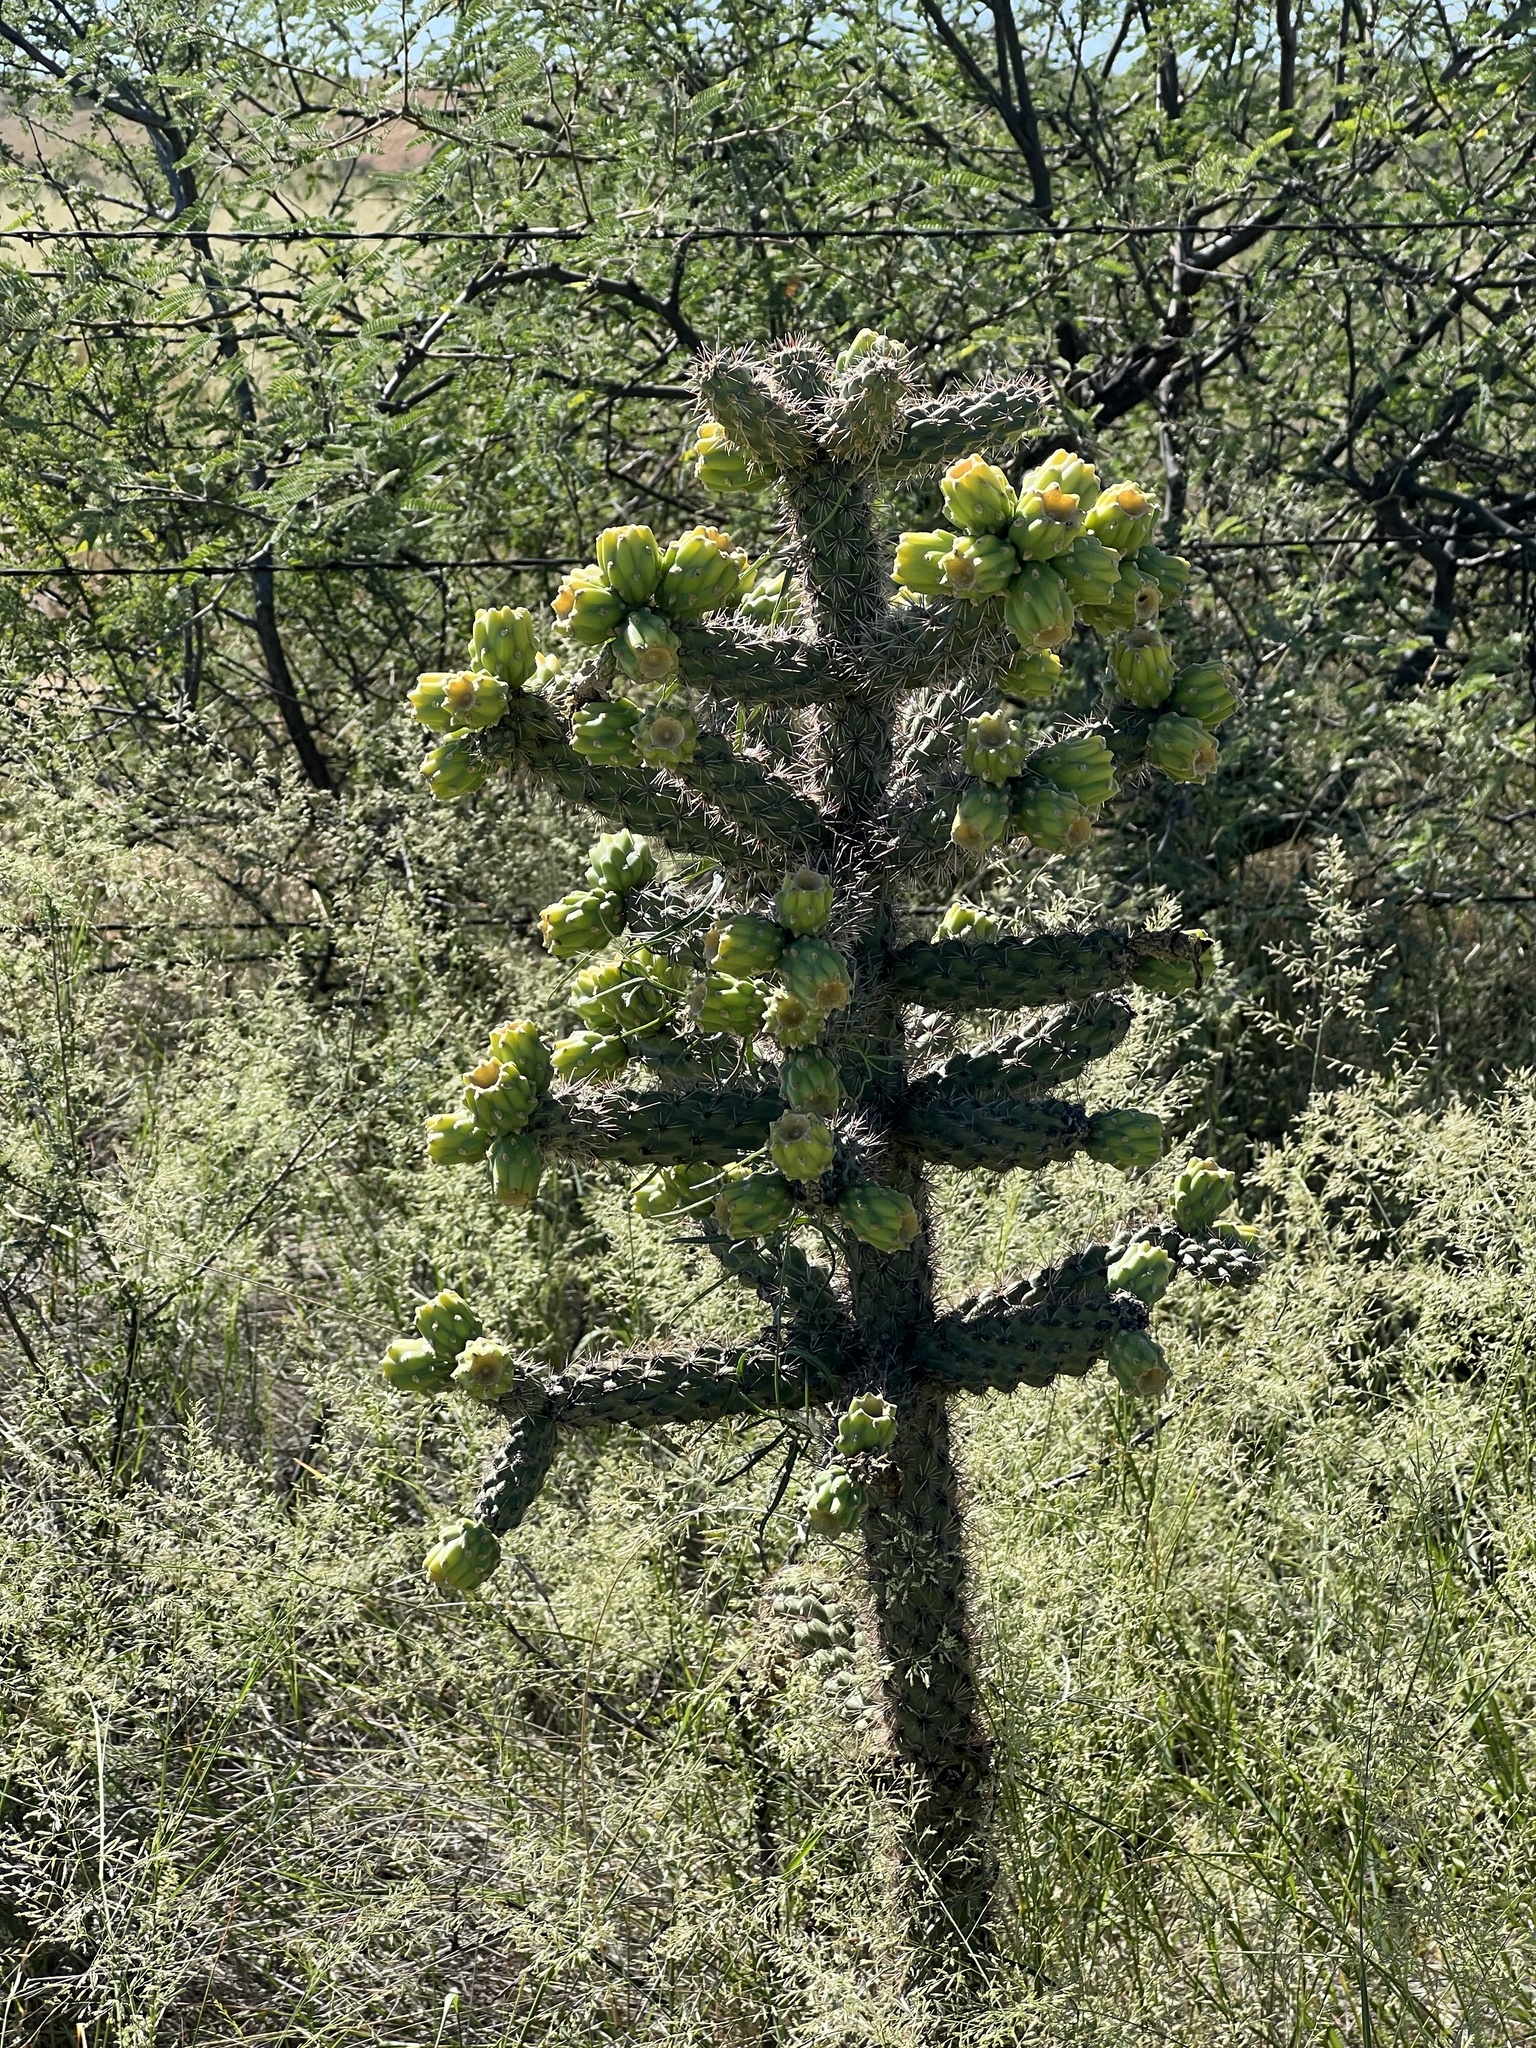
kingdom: Plantae
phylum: Tracheophyta
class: Magnoliopsida
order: Caryophyllales
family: Cactaceae
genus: Cylindropuntia
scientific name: Cylindropuntia imbricata
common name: Candelabrum cactus
